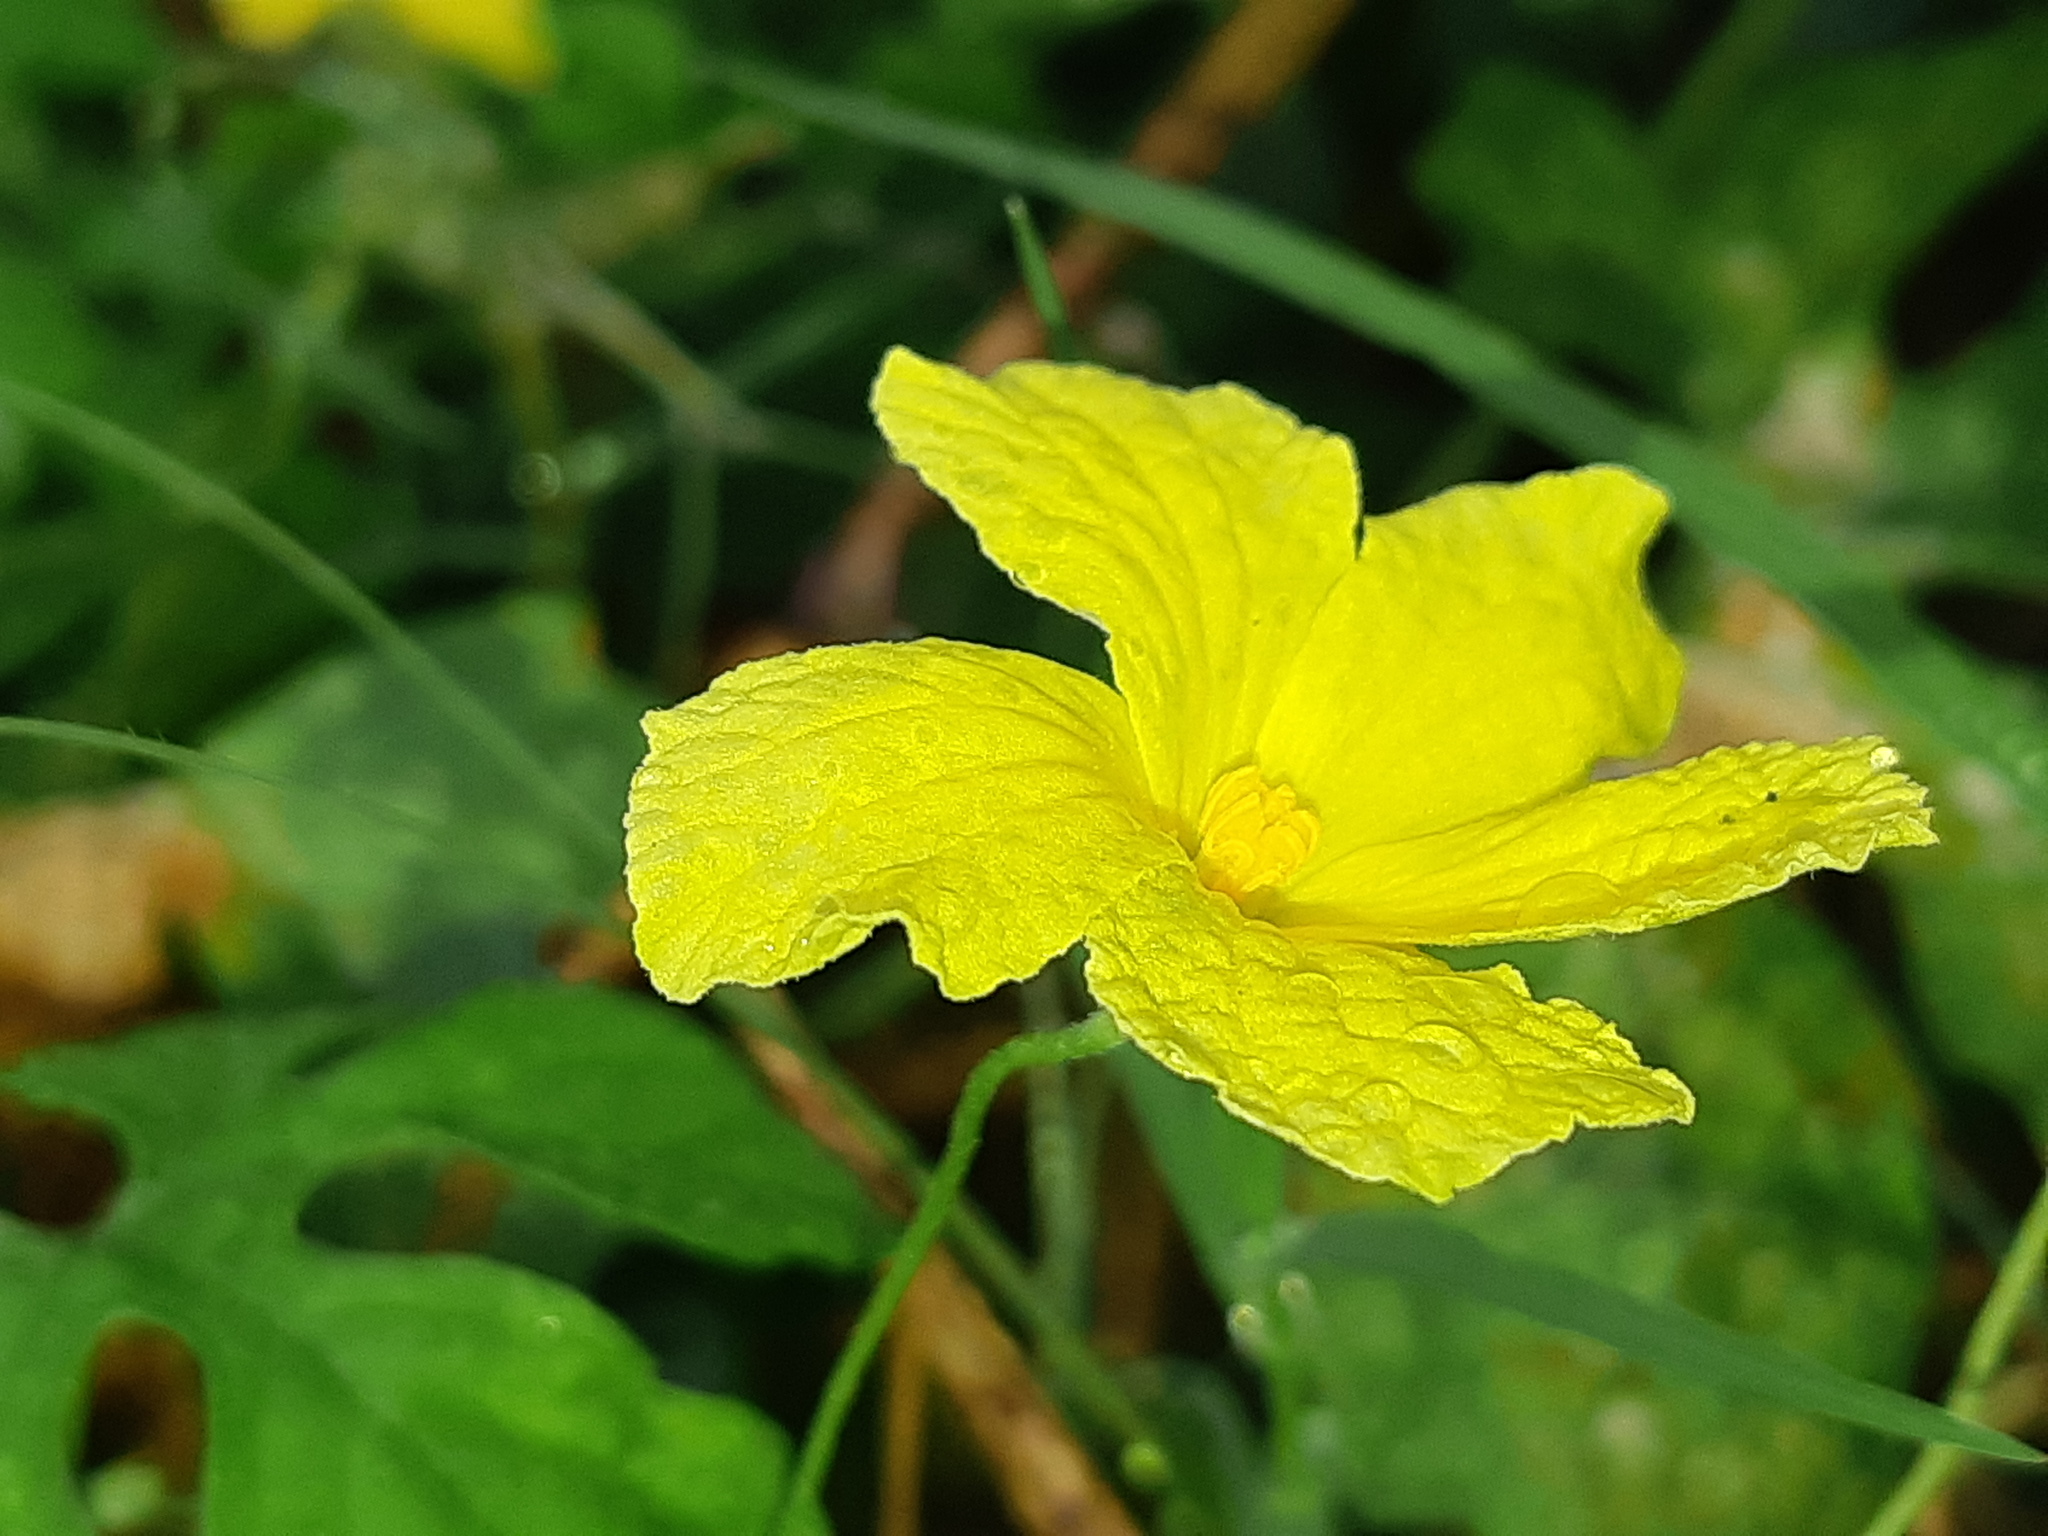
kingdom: Plantae
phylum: Tracheophyta
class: Magnoliopsida
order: Cucurbitales
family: Cucurbitaceae
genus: Momordica
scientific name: Momordica charantia
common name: Balsampear
